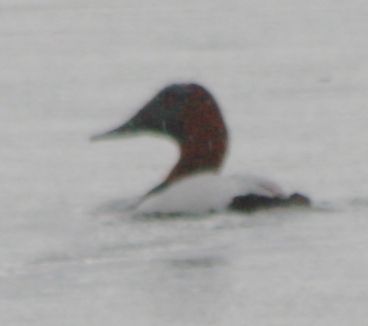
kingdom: Animalia
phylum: Chordata
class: Aves
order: Anseriformes
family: Anatidae
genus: Aythya
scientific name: Aythya valisineria
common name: Canvasback
